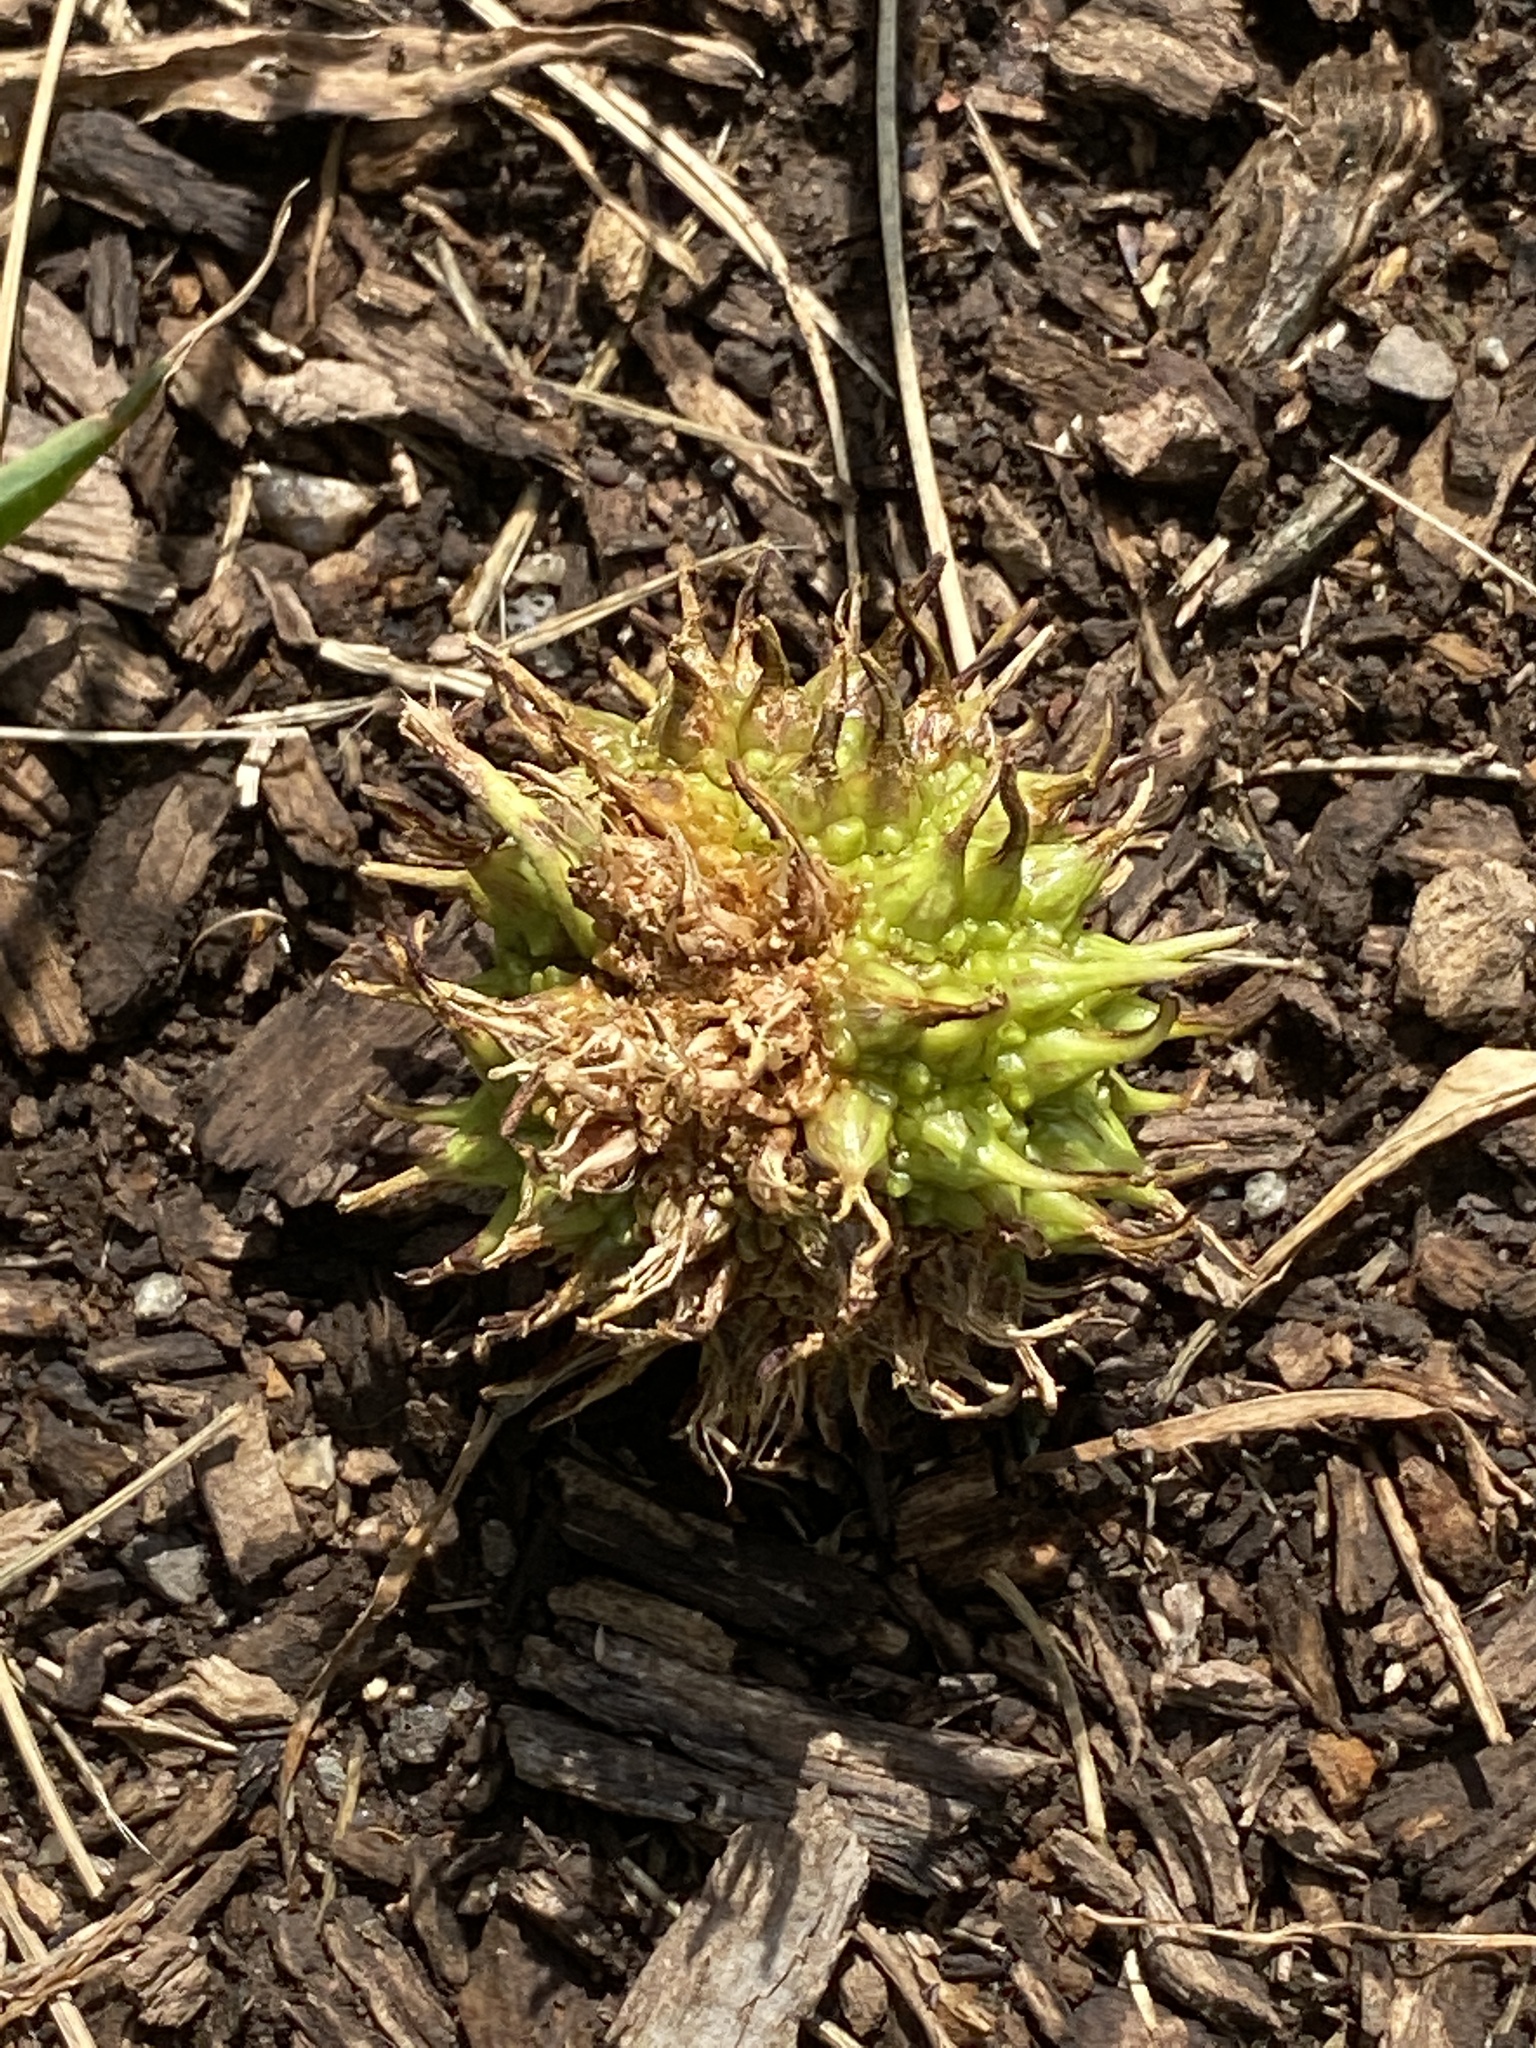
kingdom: Plantae
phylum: Tracheophyta
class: Magnoliopsida
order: Saxifragales
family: Altingiaceae
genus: Liquidambar
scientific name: Liquidambar styraciflua
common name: Sweet gum
